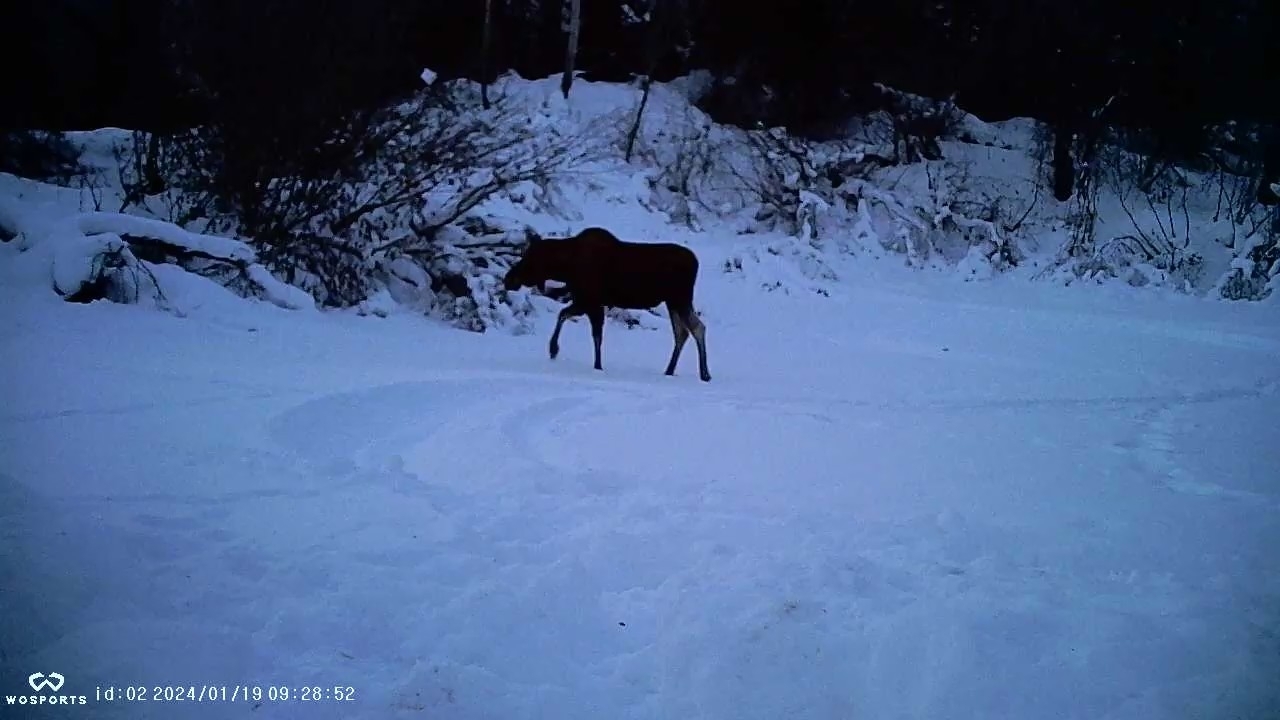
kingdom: Animalia
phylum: Chordata
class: Mammalia
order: Artiodactyla
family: Cervidae
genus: Alces
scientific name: Alces alces
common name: Moose
